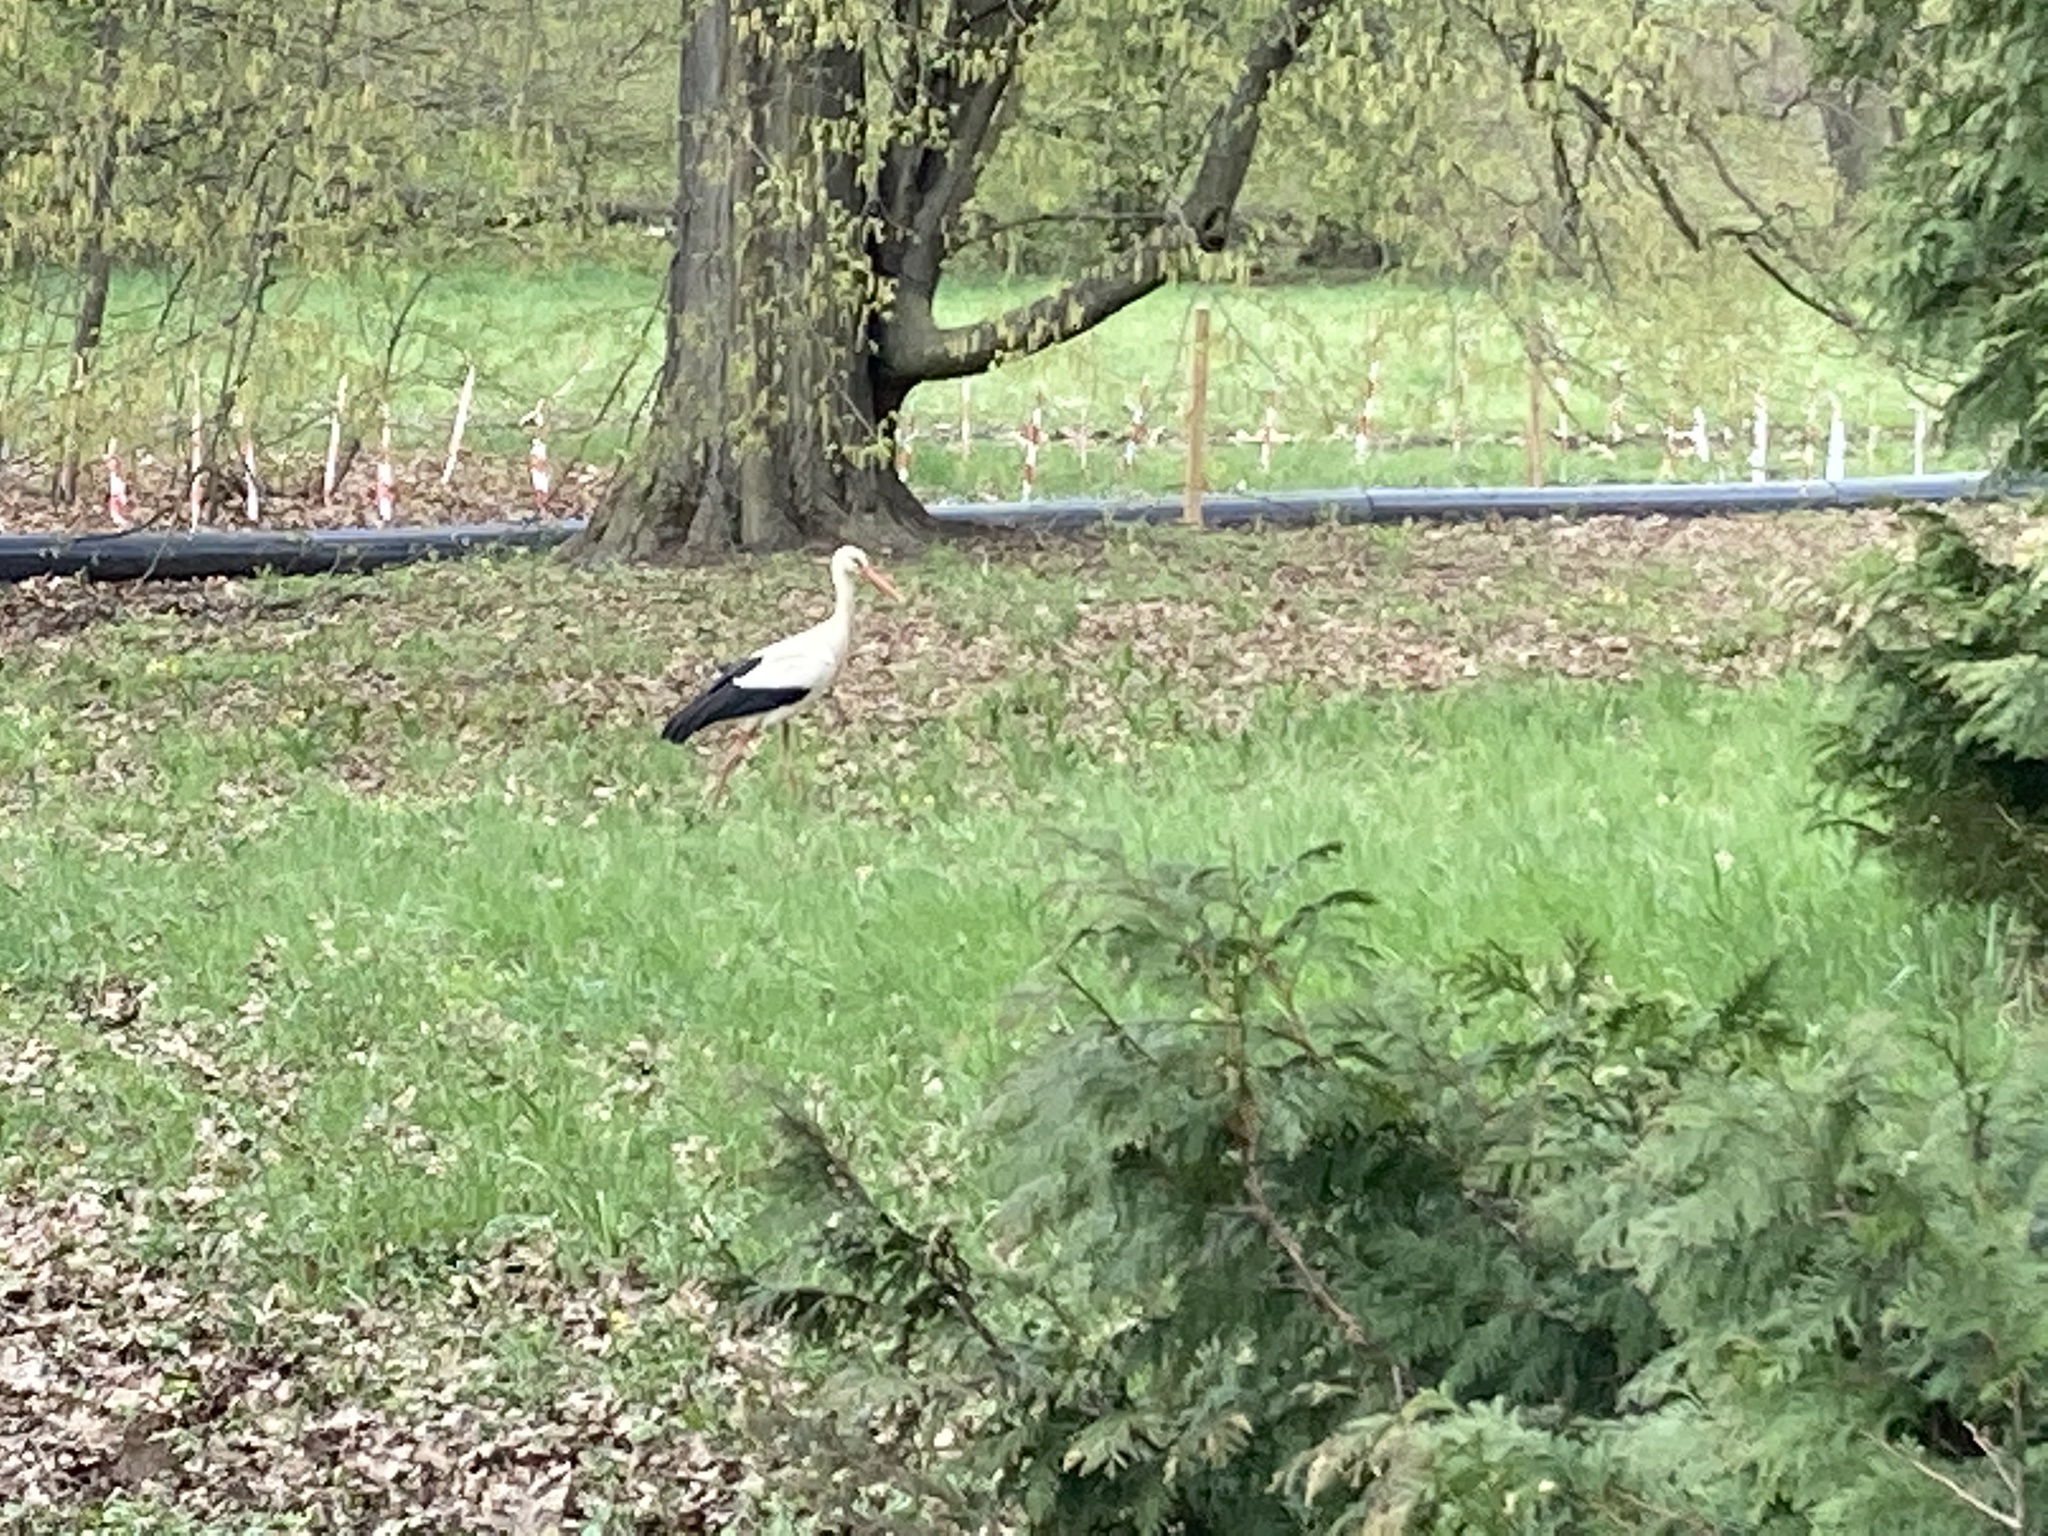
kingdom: Animalia
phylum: Chordata
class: Aves
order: Ciconiiformes
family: Ciconiidae
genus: Ciconia
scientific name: Ciconia ciconia
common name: White stork
